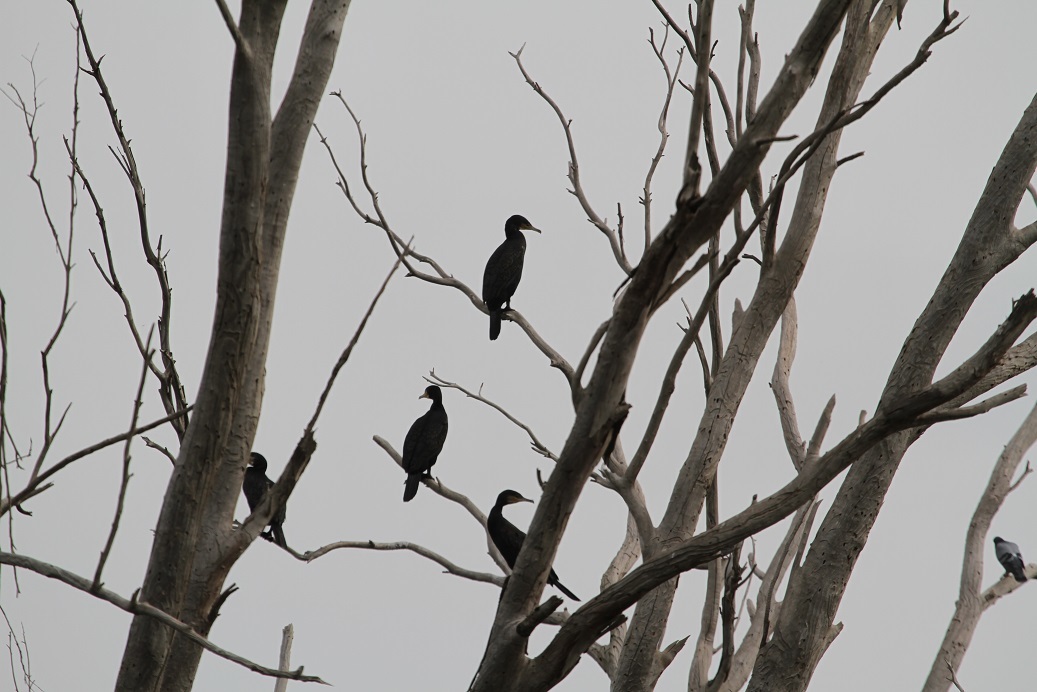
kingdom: Animalia
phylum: Chordata
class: Aves
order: Suliformes
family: Phalacrocoracidae
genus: Phalacrocorax
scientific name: Phalacrocorax carbo
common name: Great cormorant
